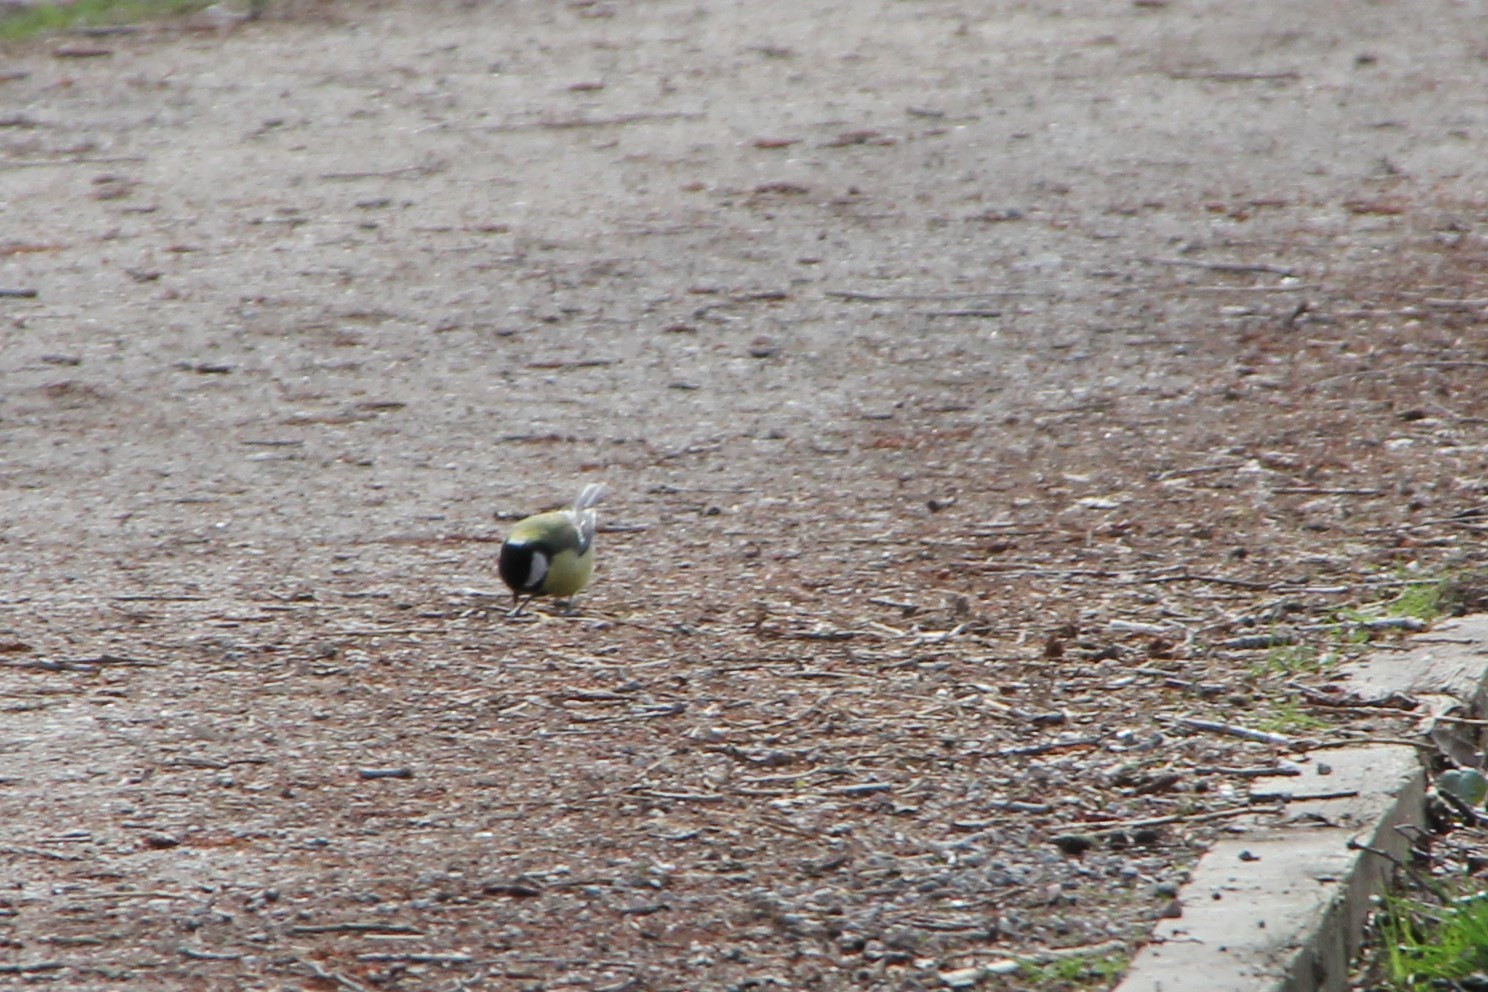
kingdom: Animalia
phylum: Chordata
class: Aves
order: Passeriformes
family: Paridae
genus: Parus
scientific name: Parus major
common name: Great tit
